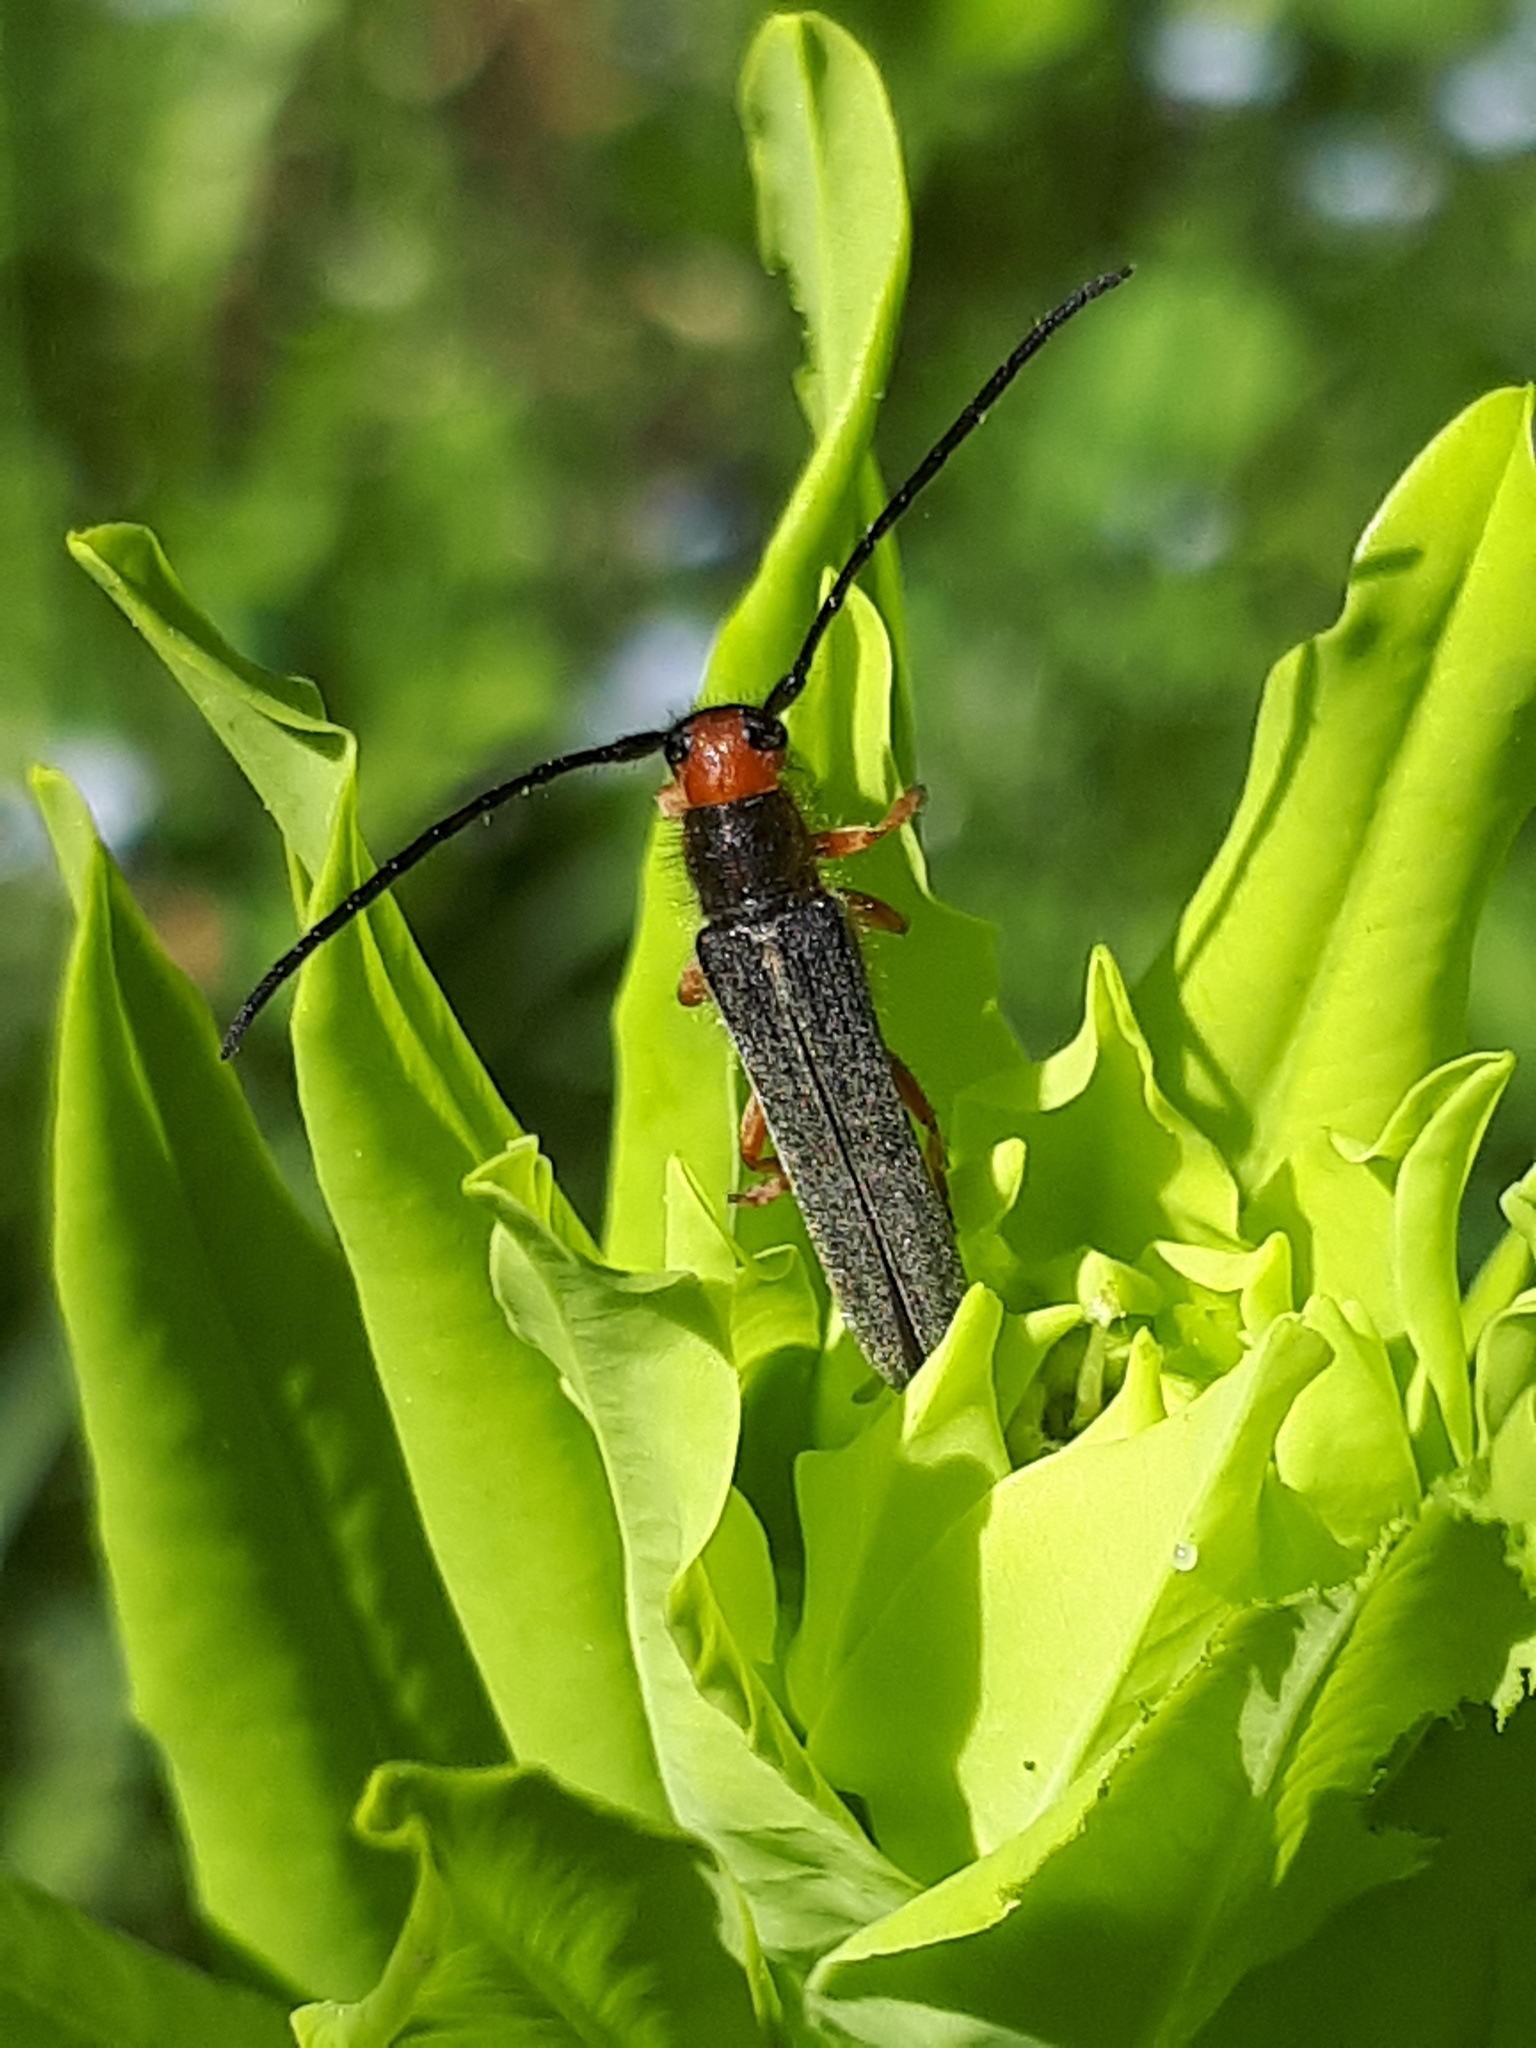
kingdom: Animalia
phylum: Arthropoda
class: Insecta
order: Coleoptera
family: Cerambycidae
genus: Oberea
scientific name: Oberea erythrocephala
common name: Leafy spurge stem boring beetle
